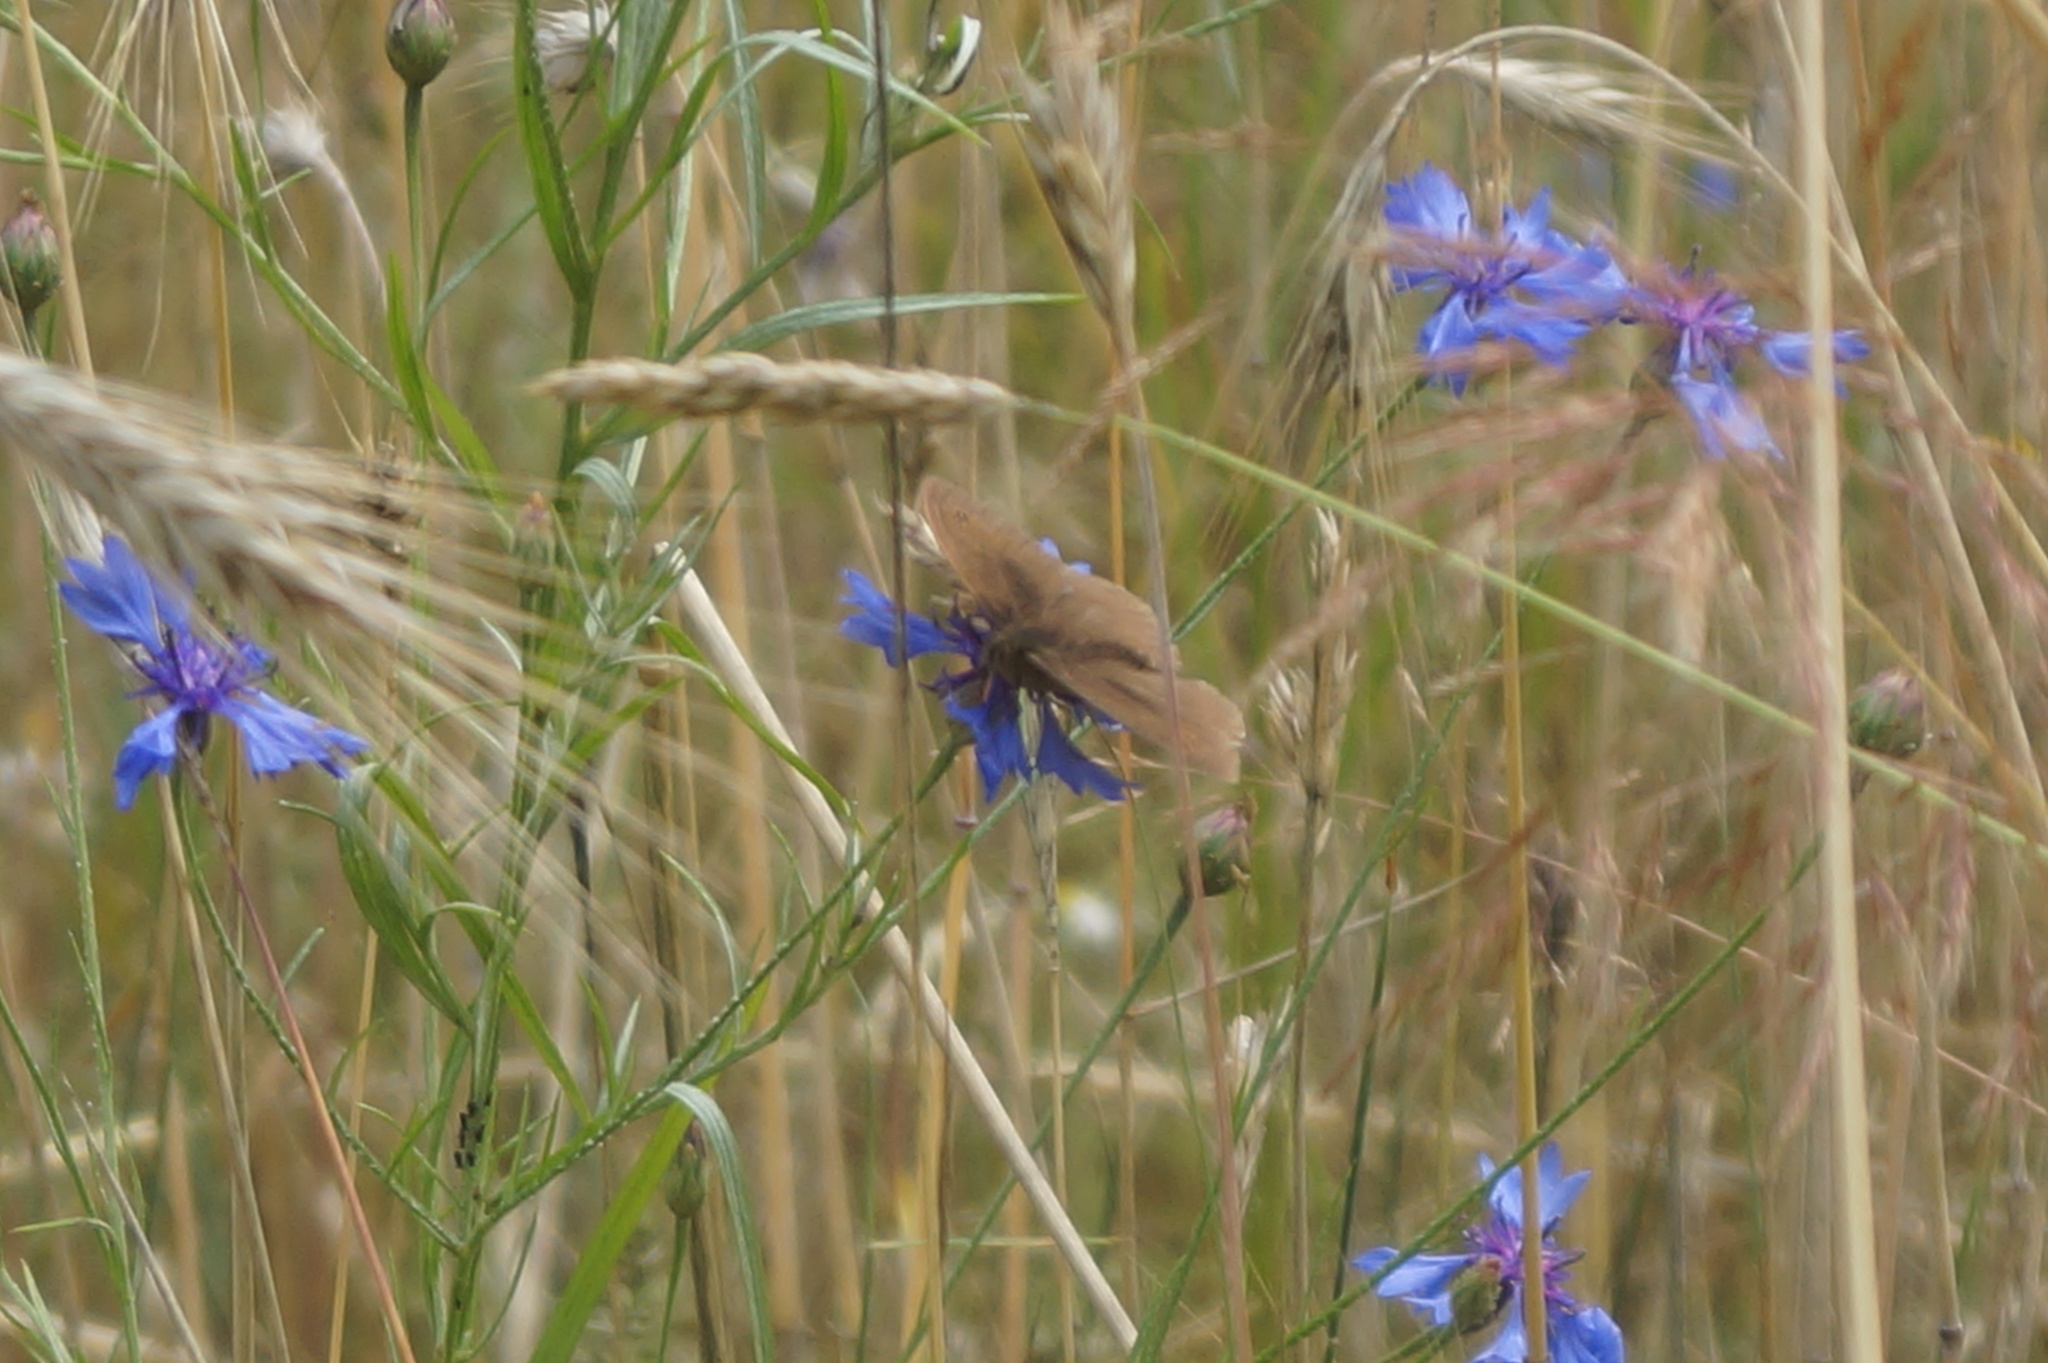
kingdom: Animalia
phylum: Arthropoda
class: Insecta
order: Lepidoptera
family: Nymphalidae
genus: Maniola
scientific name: Maniola jurtina
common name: Meadow brown
